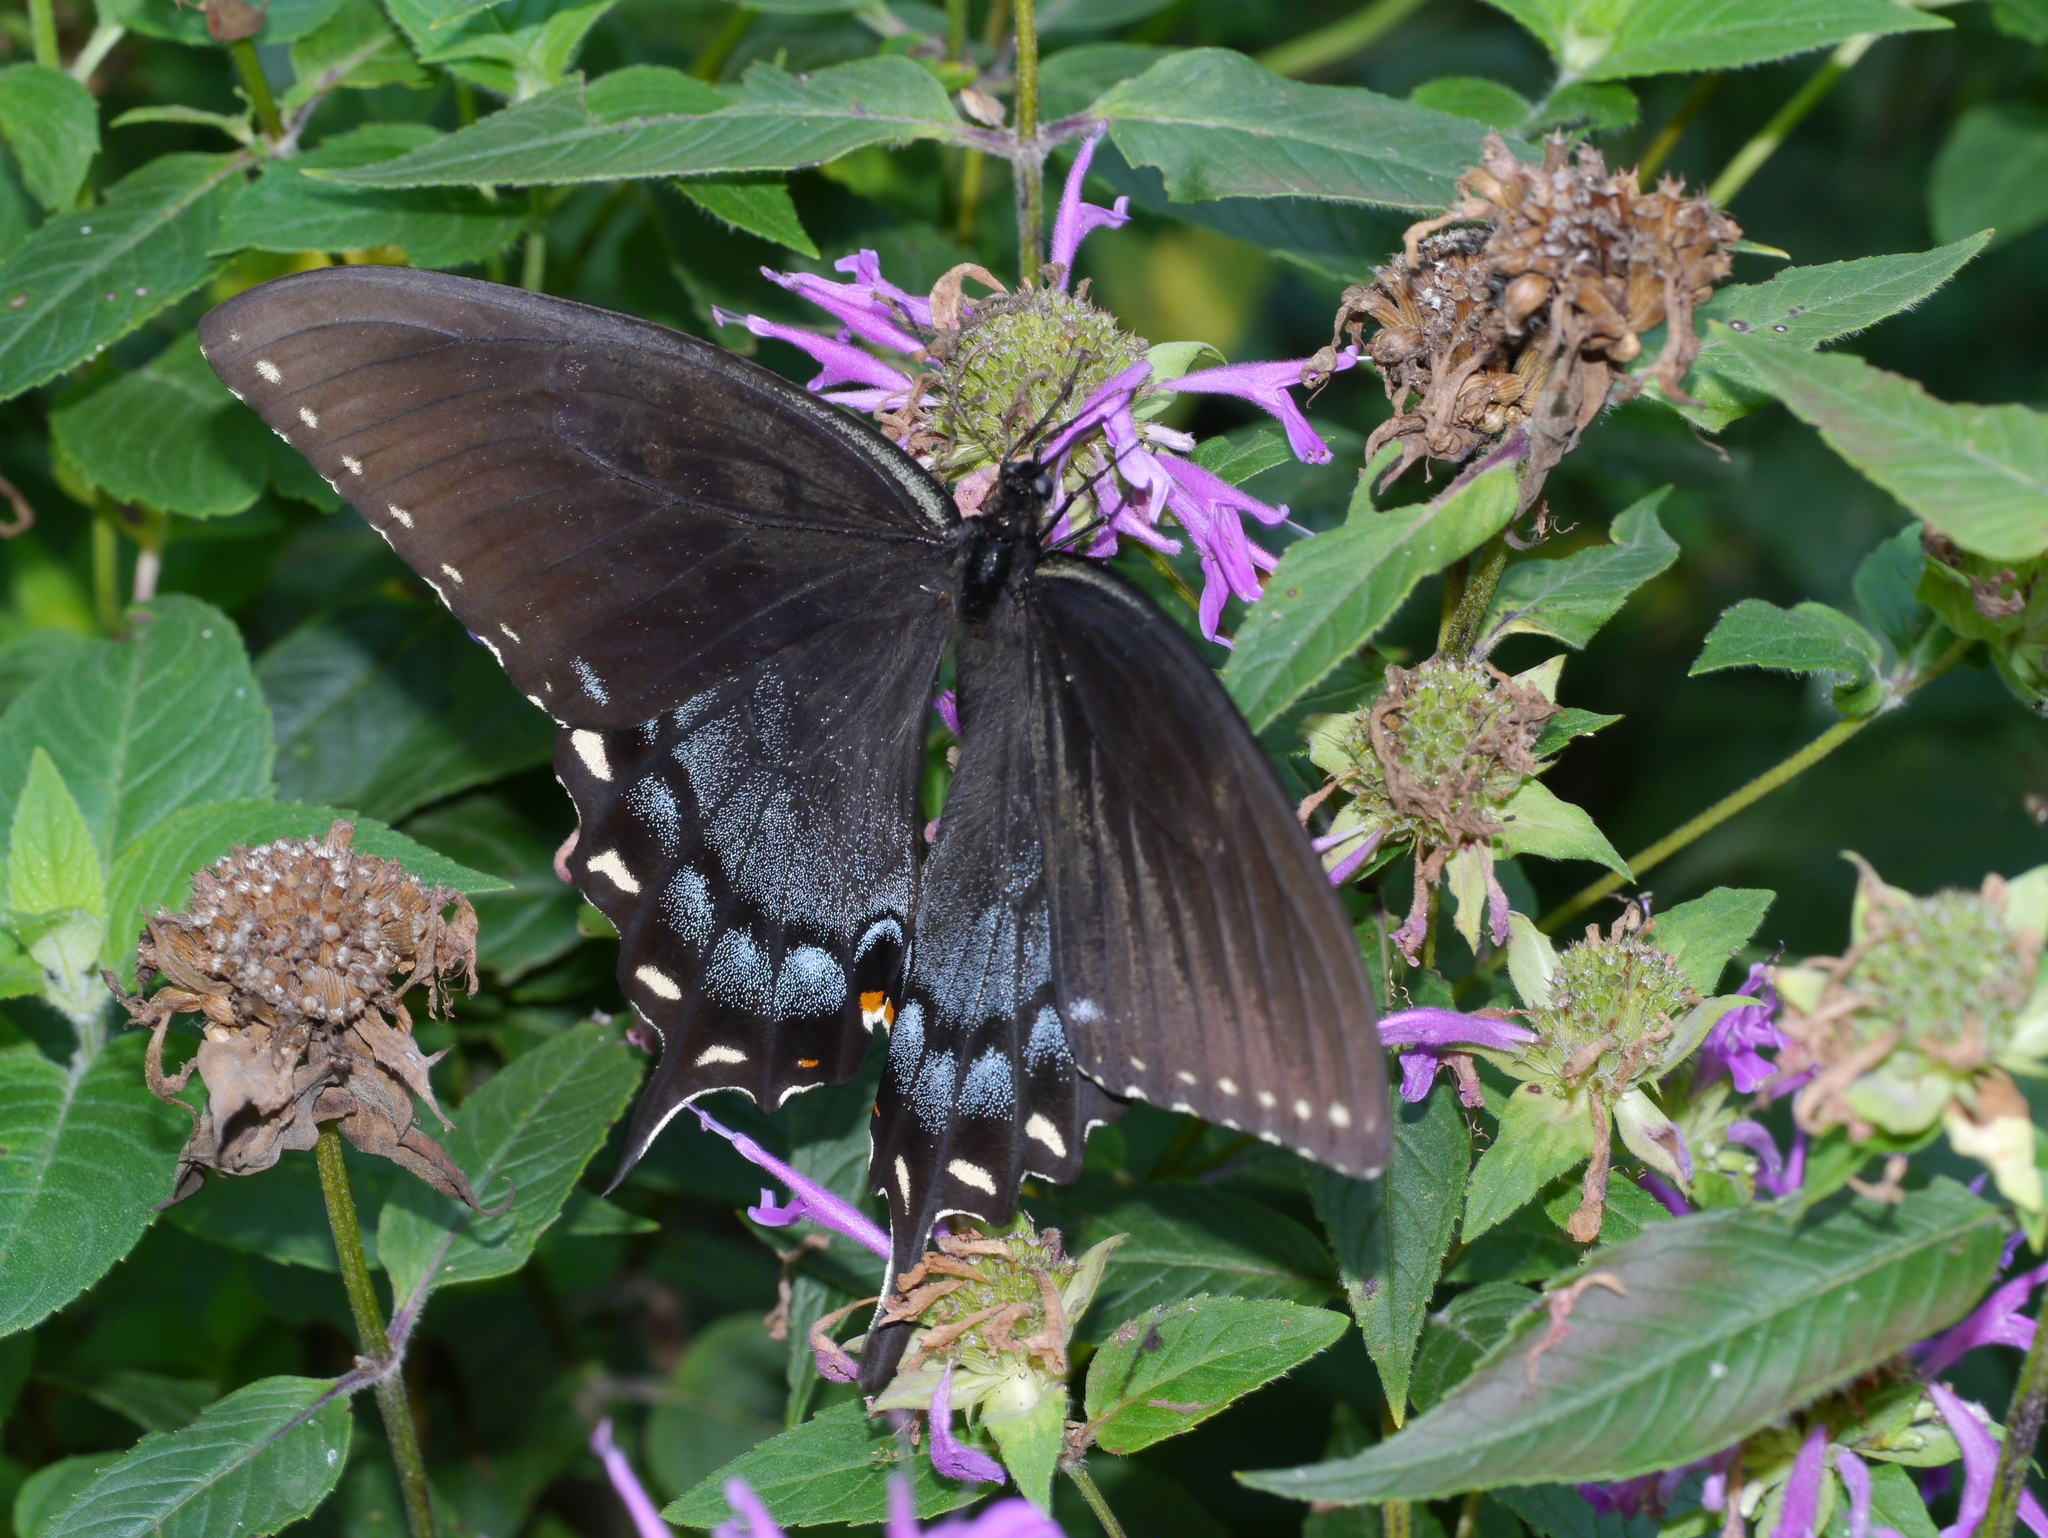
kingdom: Animalia
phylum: Arthropoda
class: Insecta
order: Lepidoptera
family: Papilionidae
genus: Papilio
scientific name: Papilio glaucus
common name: Tiger swallowtail
